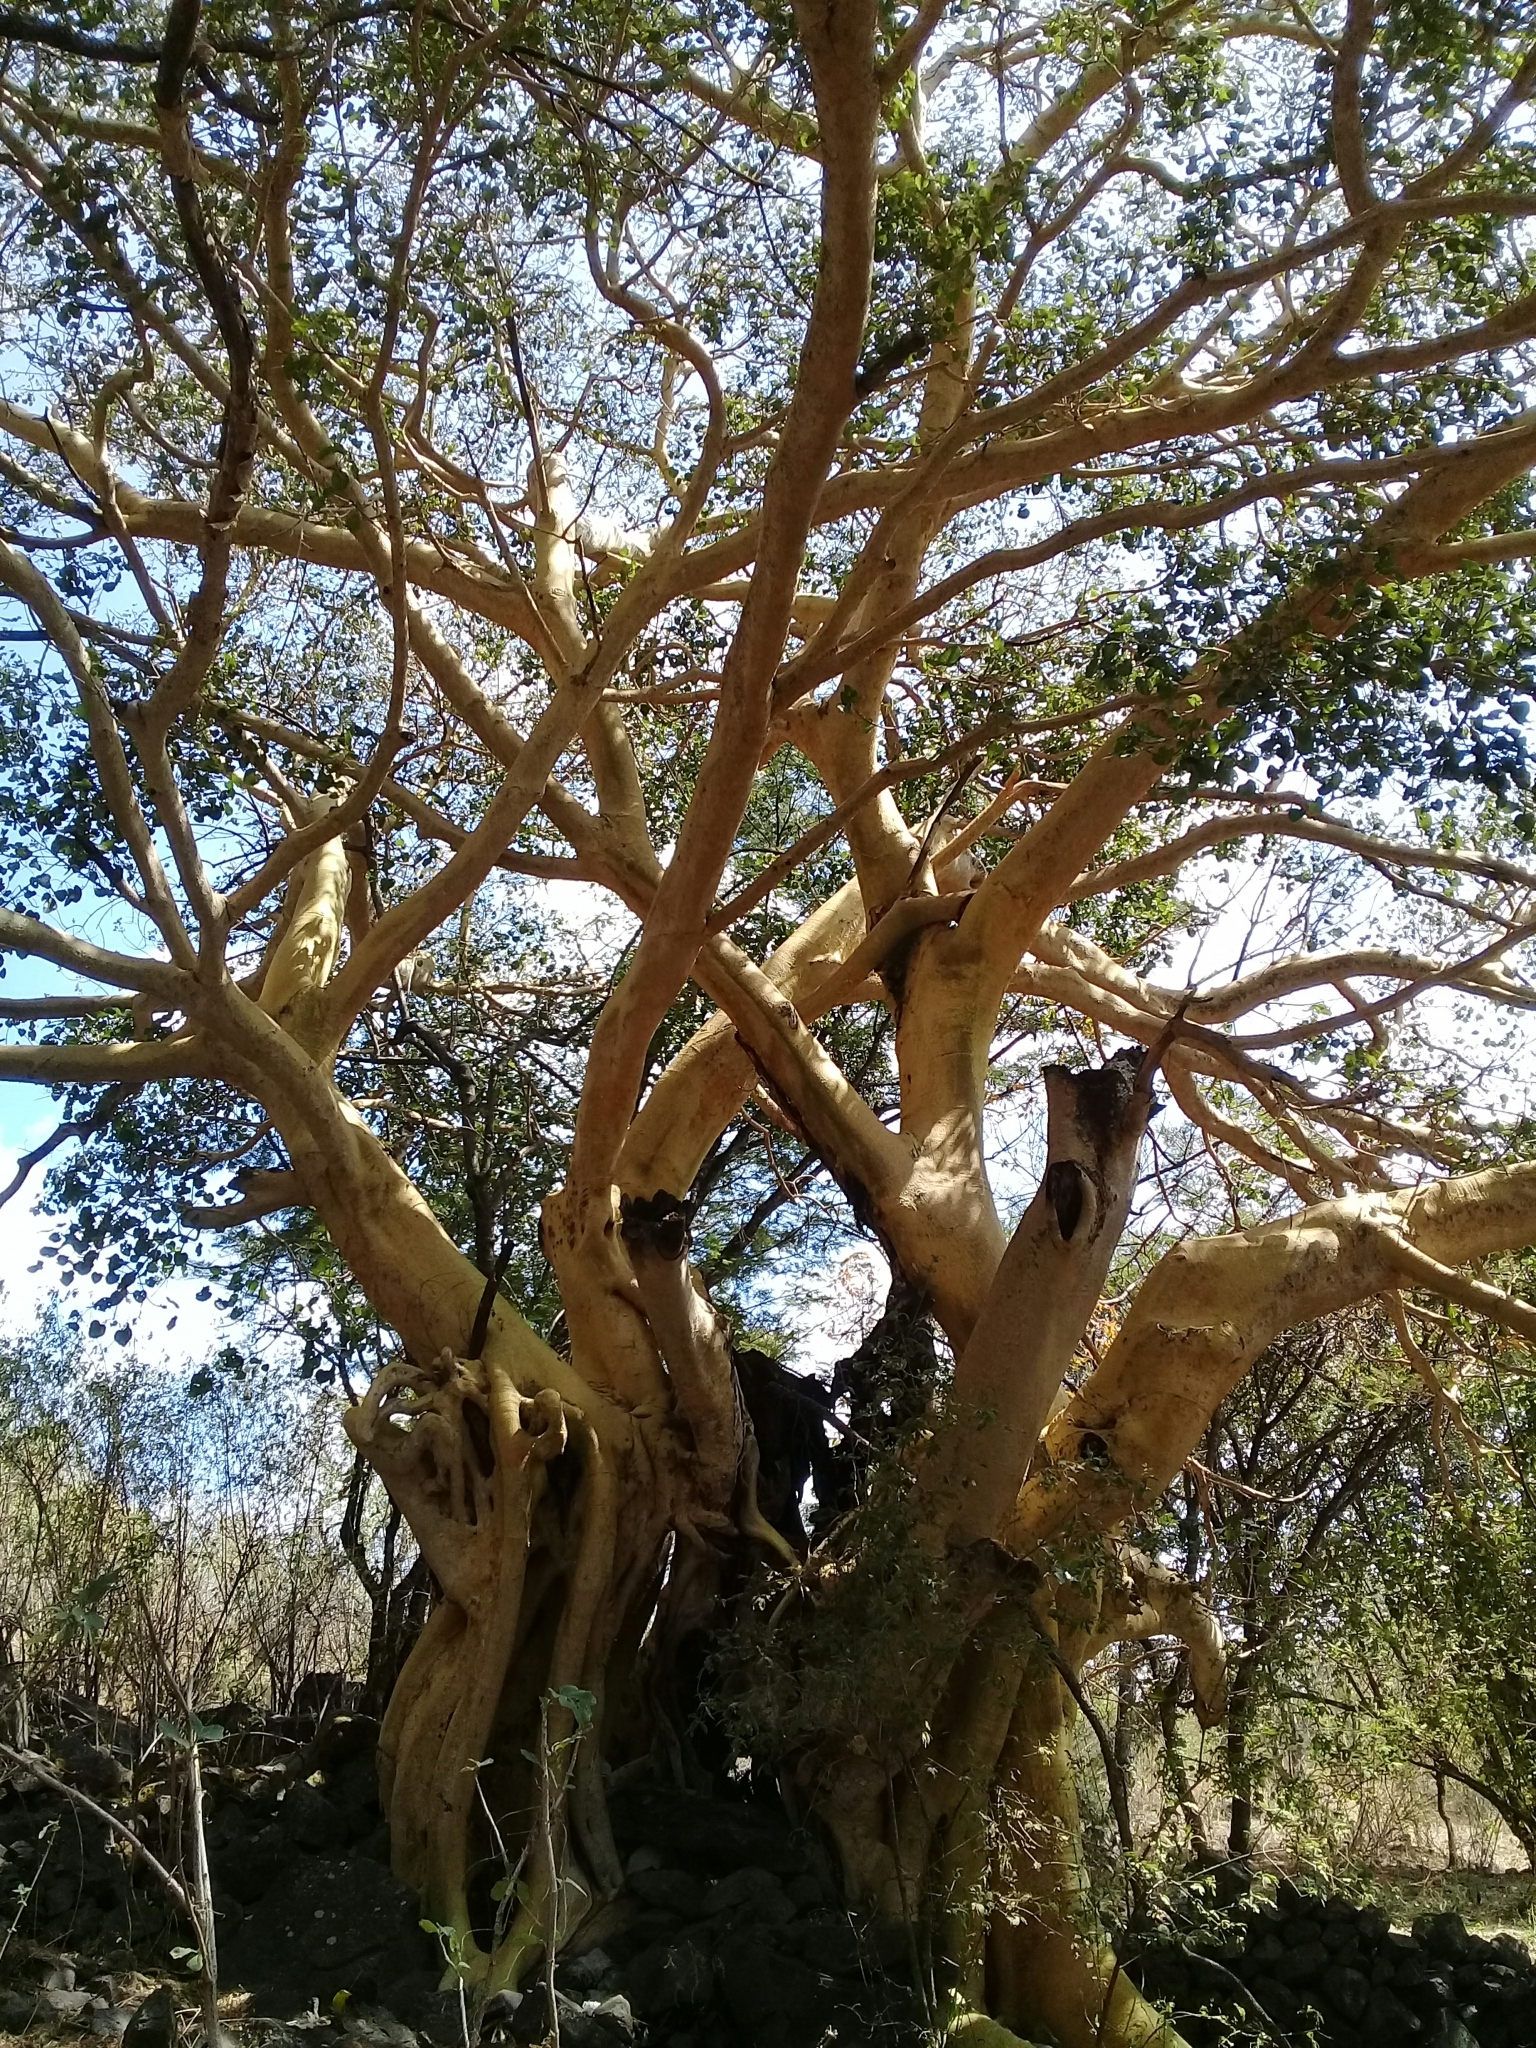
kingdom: Plantae
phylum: Tracheophyta
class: Magnoliopsida
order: Rosales
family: Moraceae
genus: Ficus
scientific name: Ficus petiolaris
